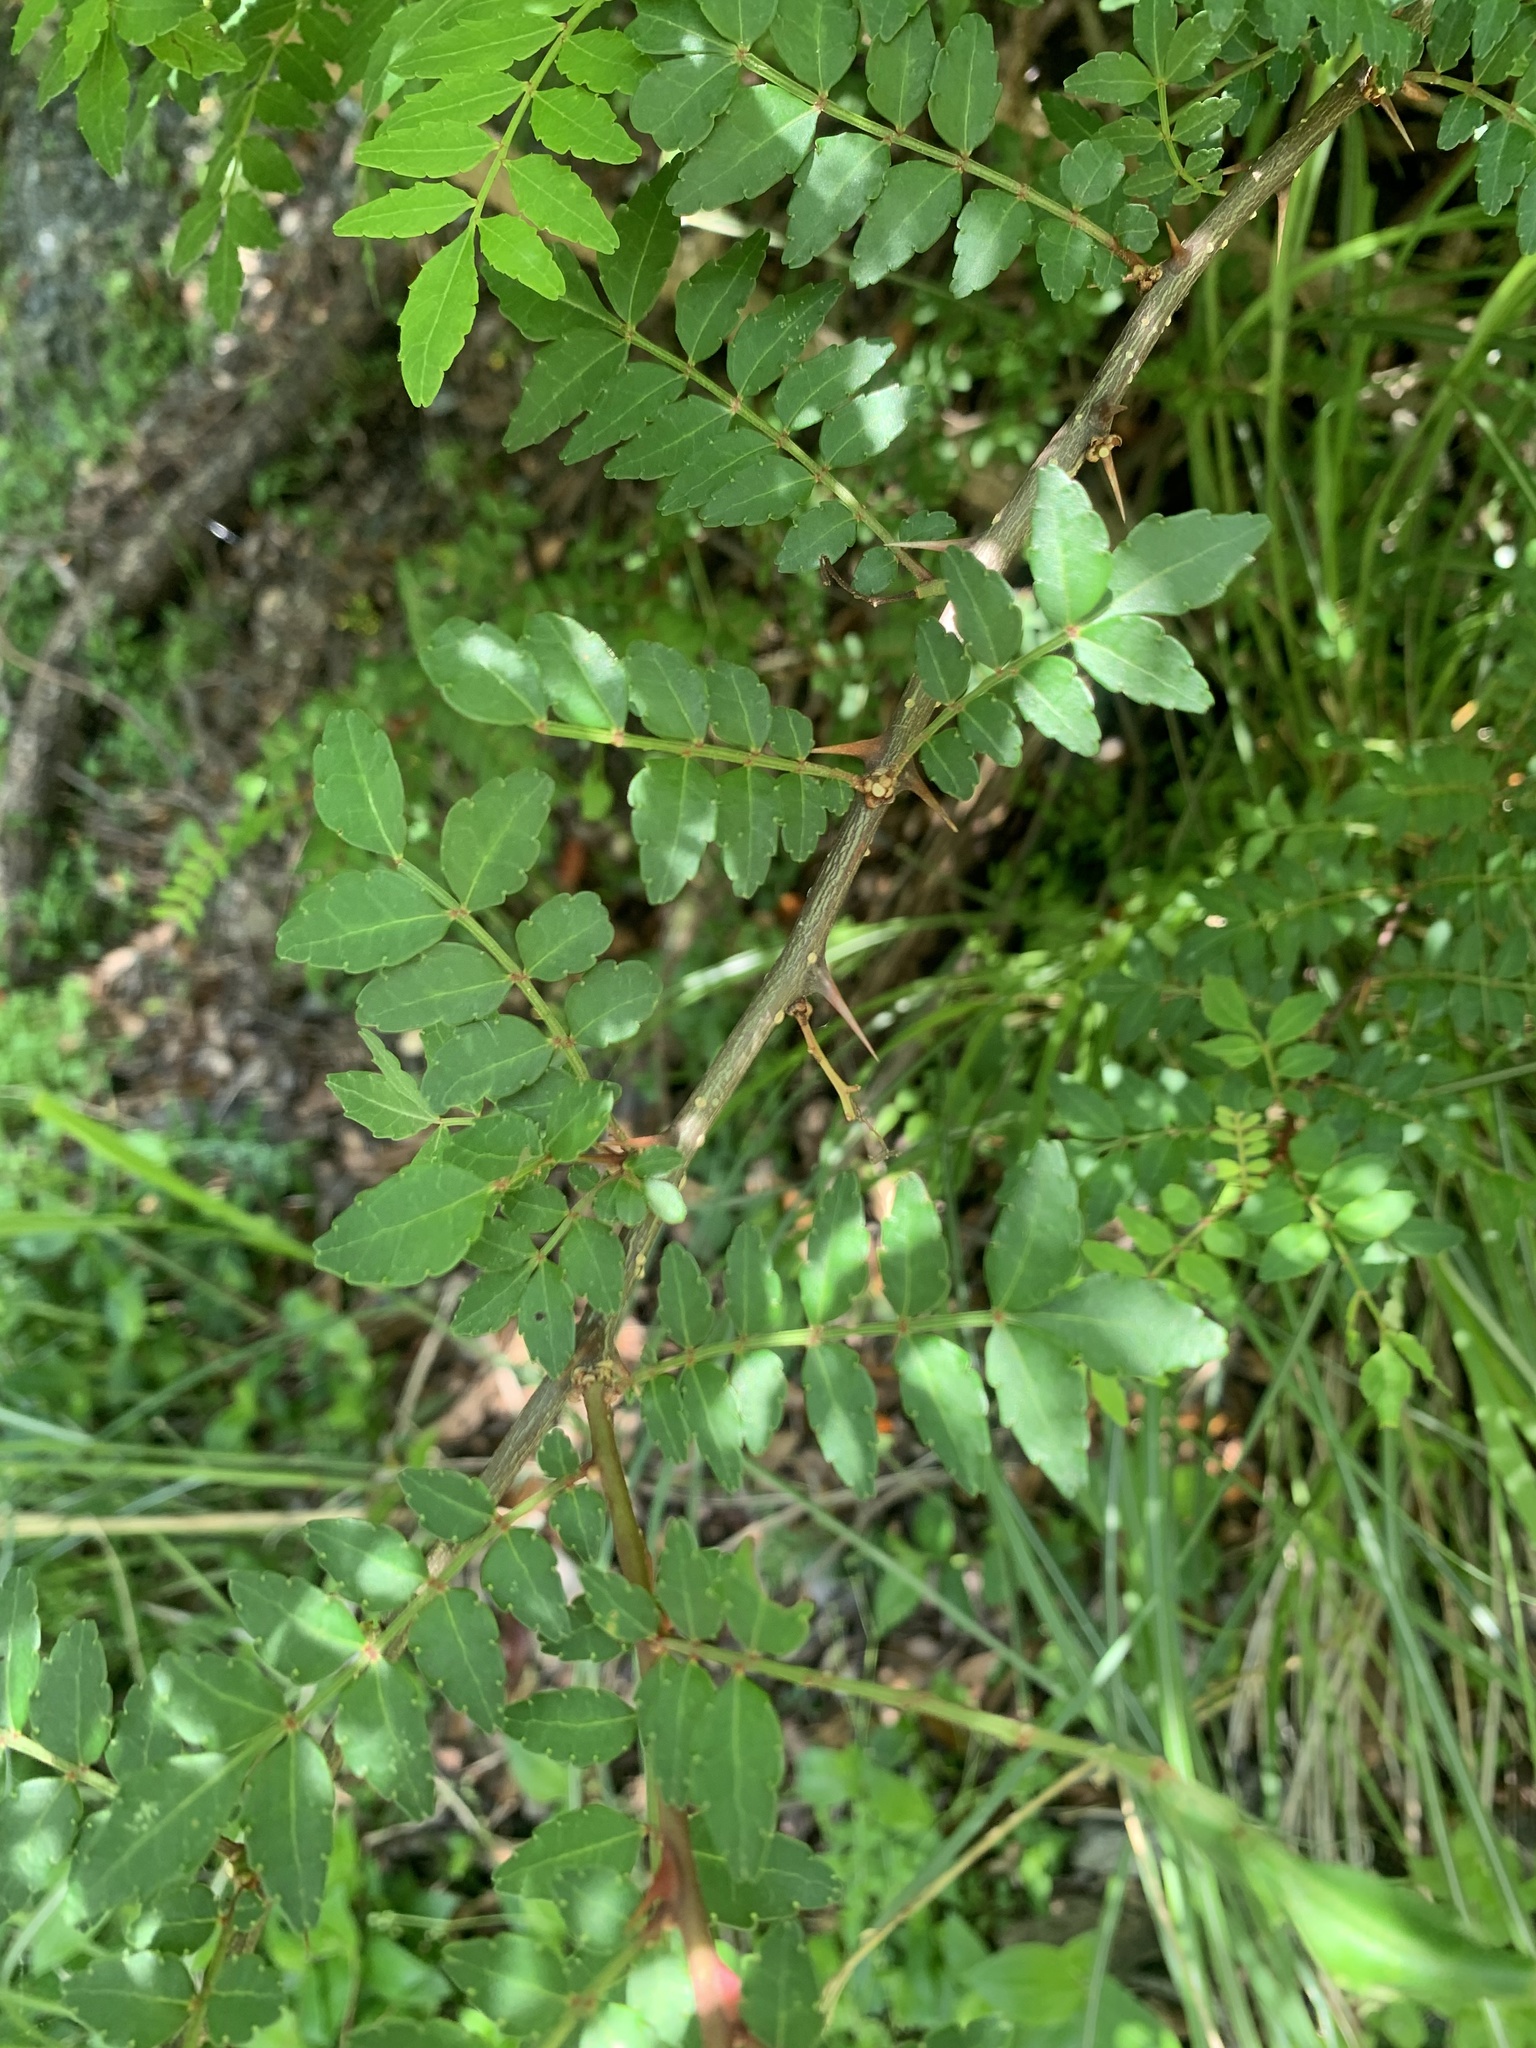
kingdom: Plantae
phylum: Tracheophyta
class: Magnoliopsida
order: Sapindales
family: Rutaceae
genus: Zanthoxylum
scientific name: Zanthoxylum piperitum
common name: Japanese-pepper
